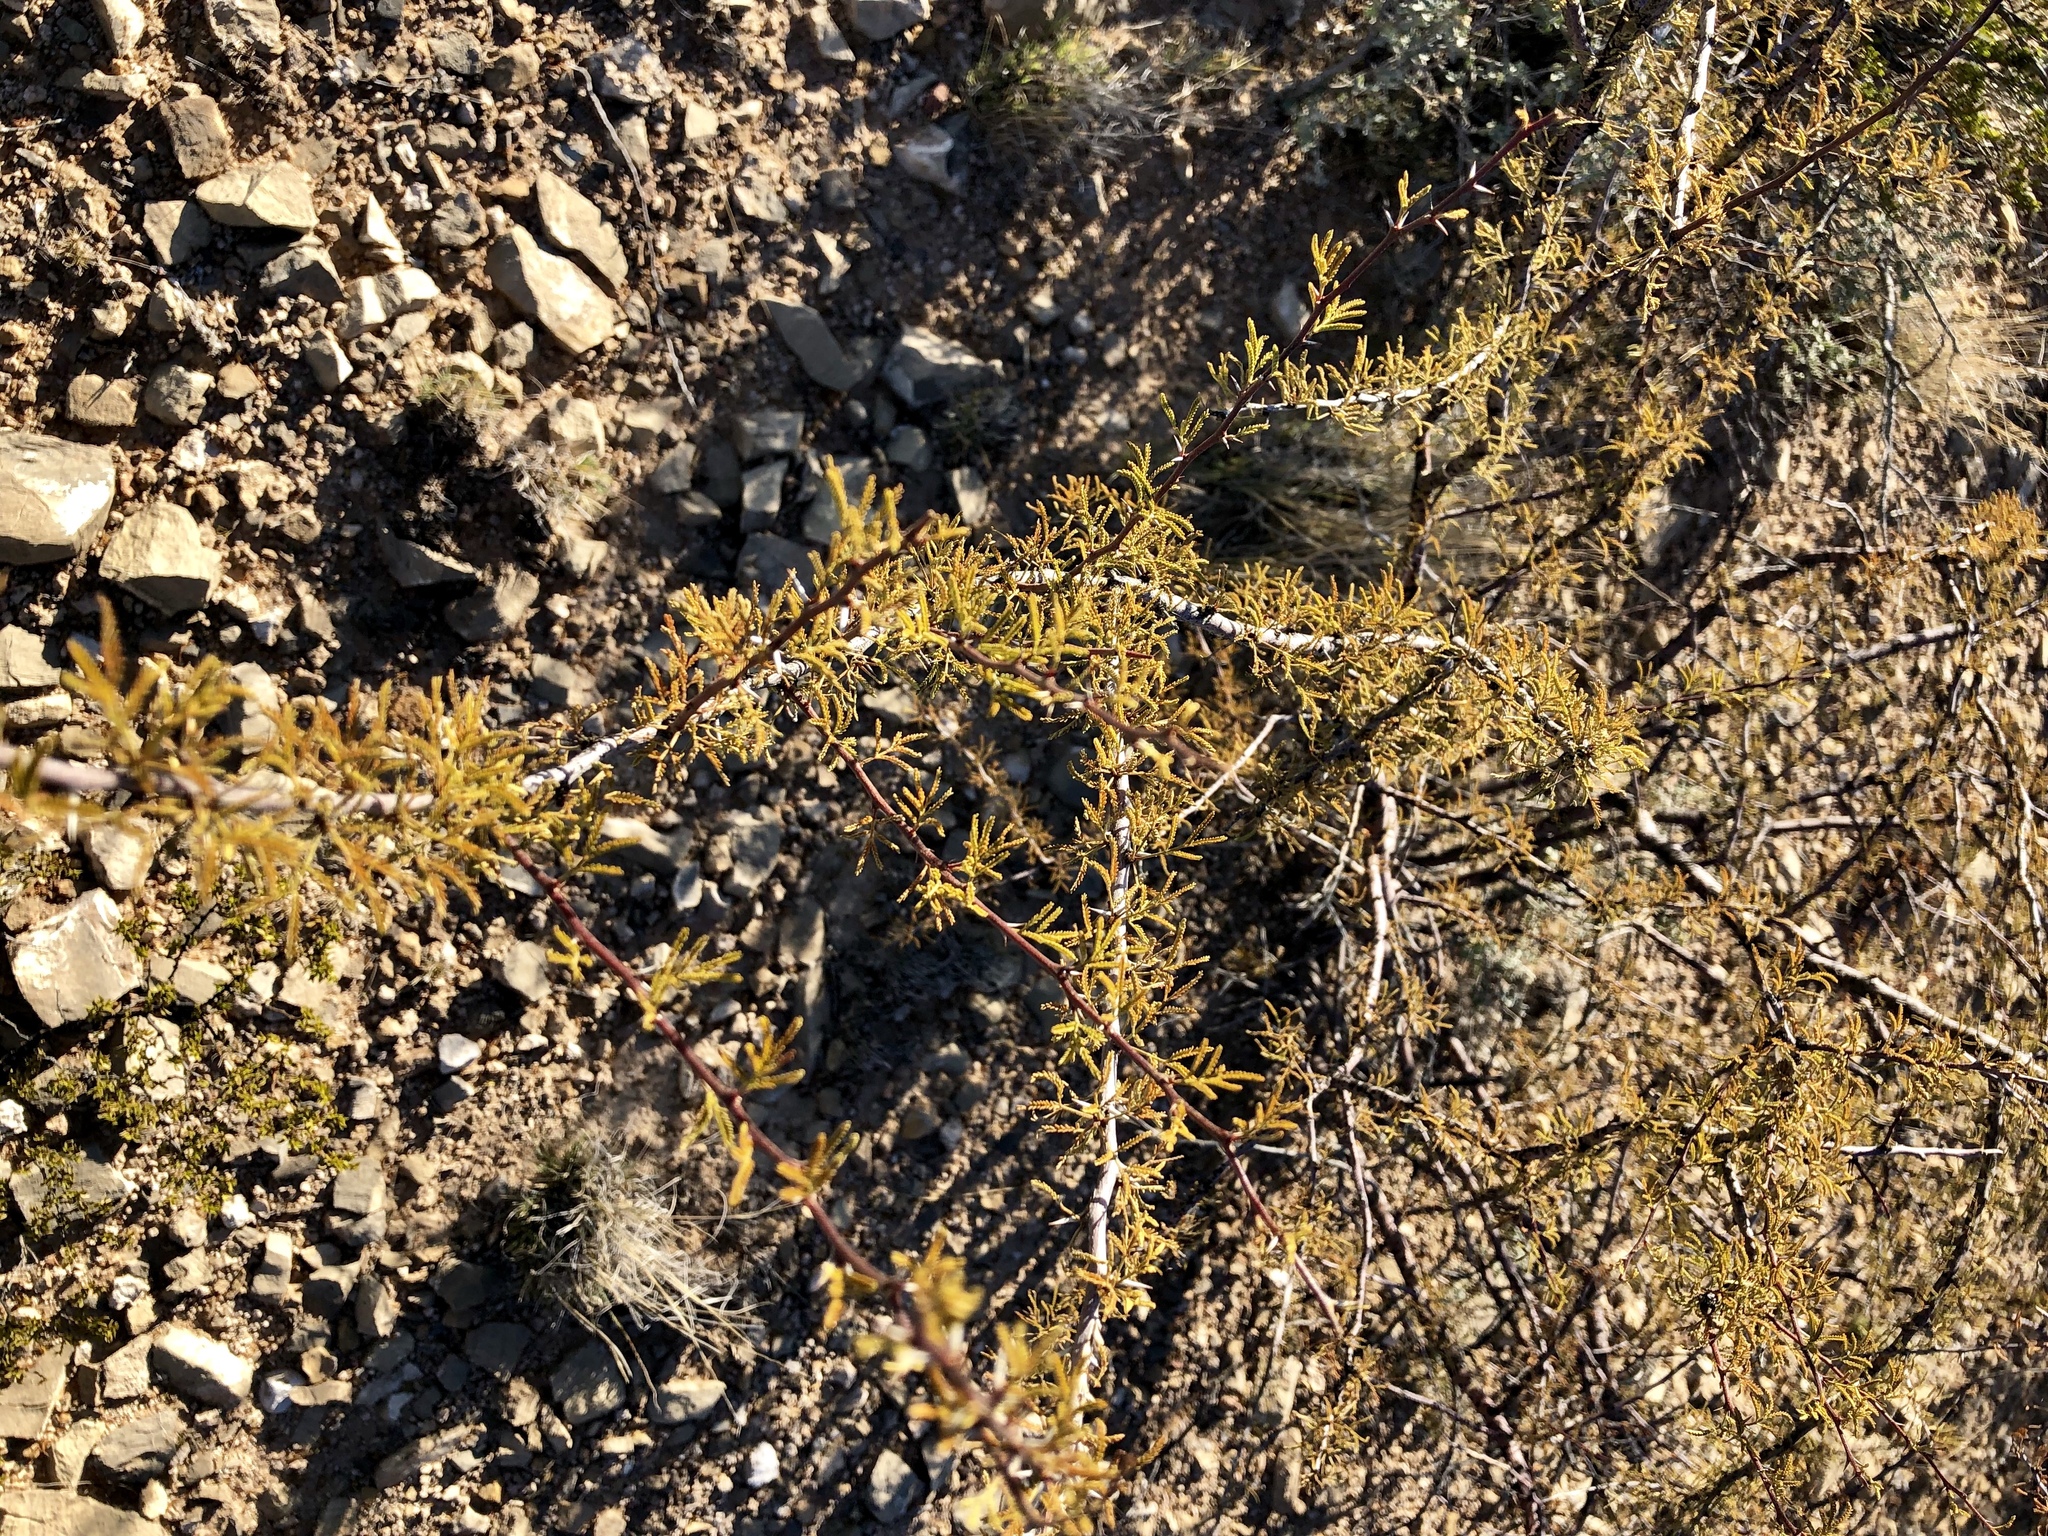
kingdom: Plantae
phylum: Tracheophyta
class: Magnoliopsida
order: Fabales
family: Fabaceae
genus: Vachellia
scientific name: Vachellia vernicosa
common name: Viscid acacia
